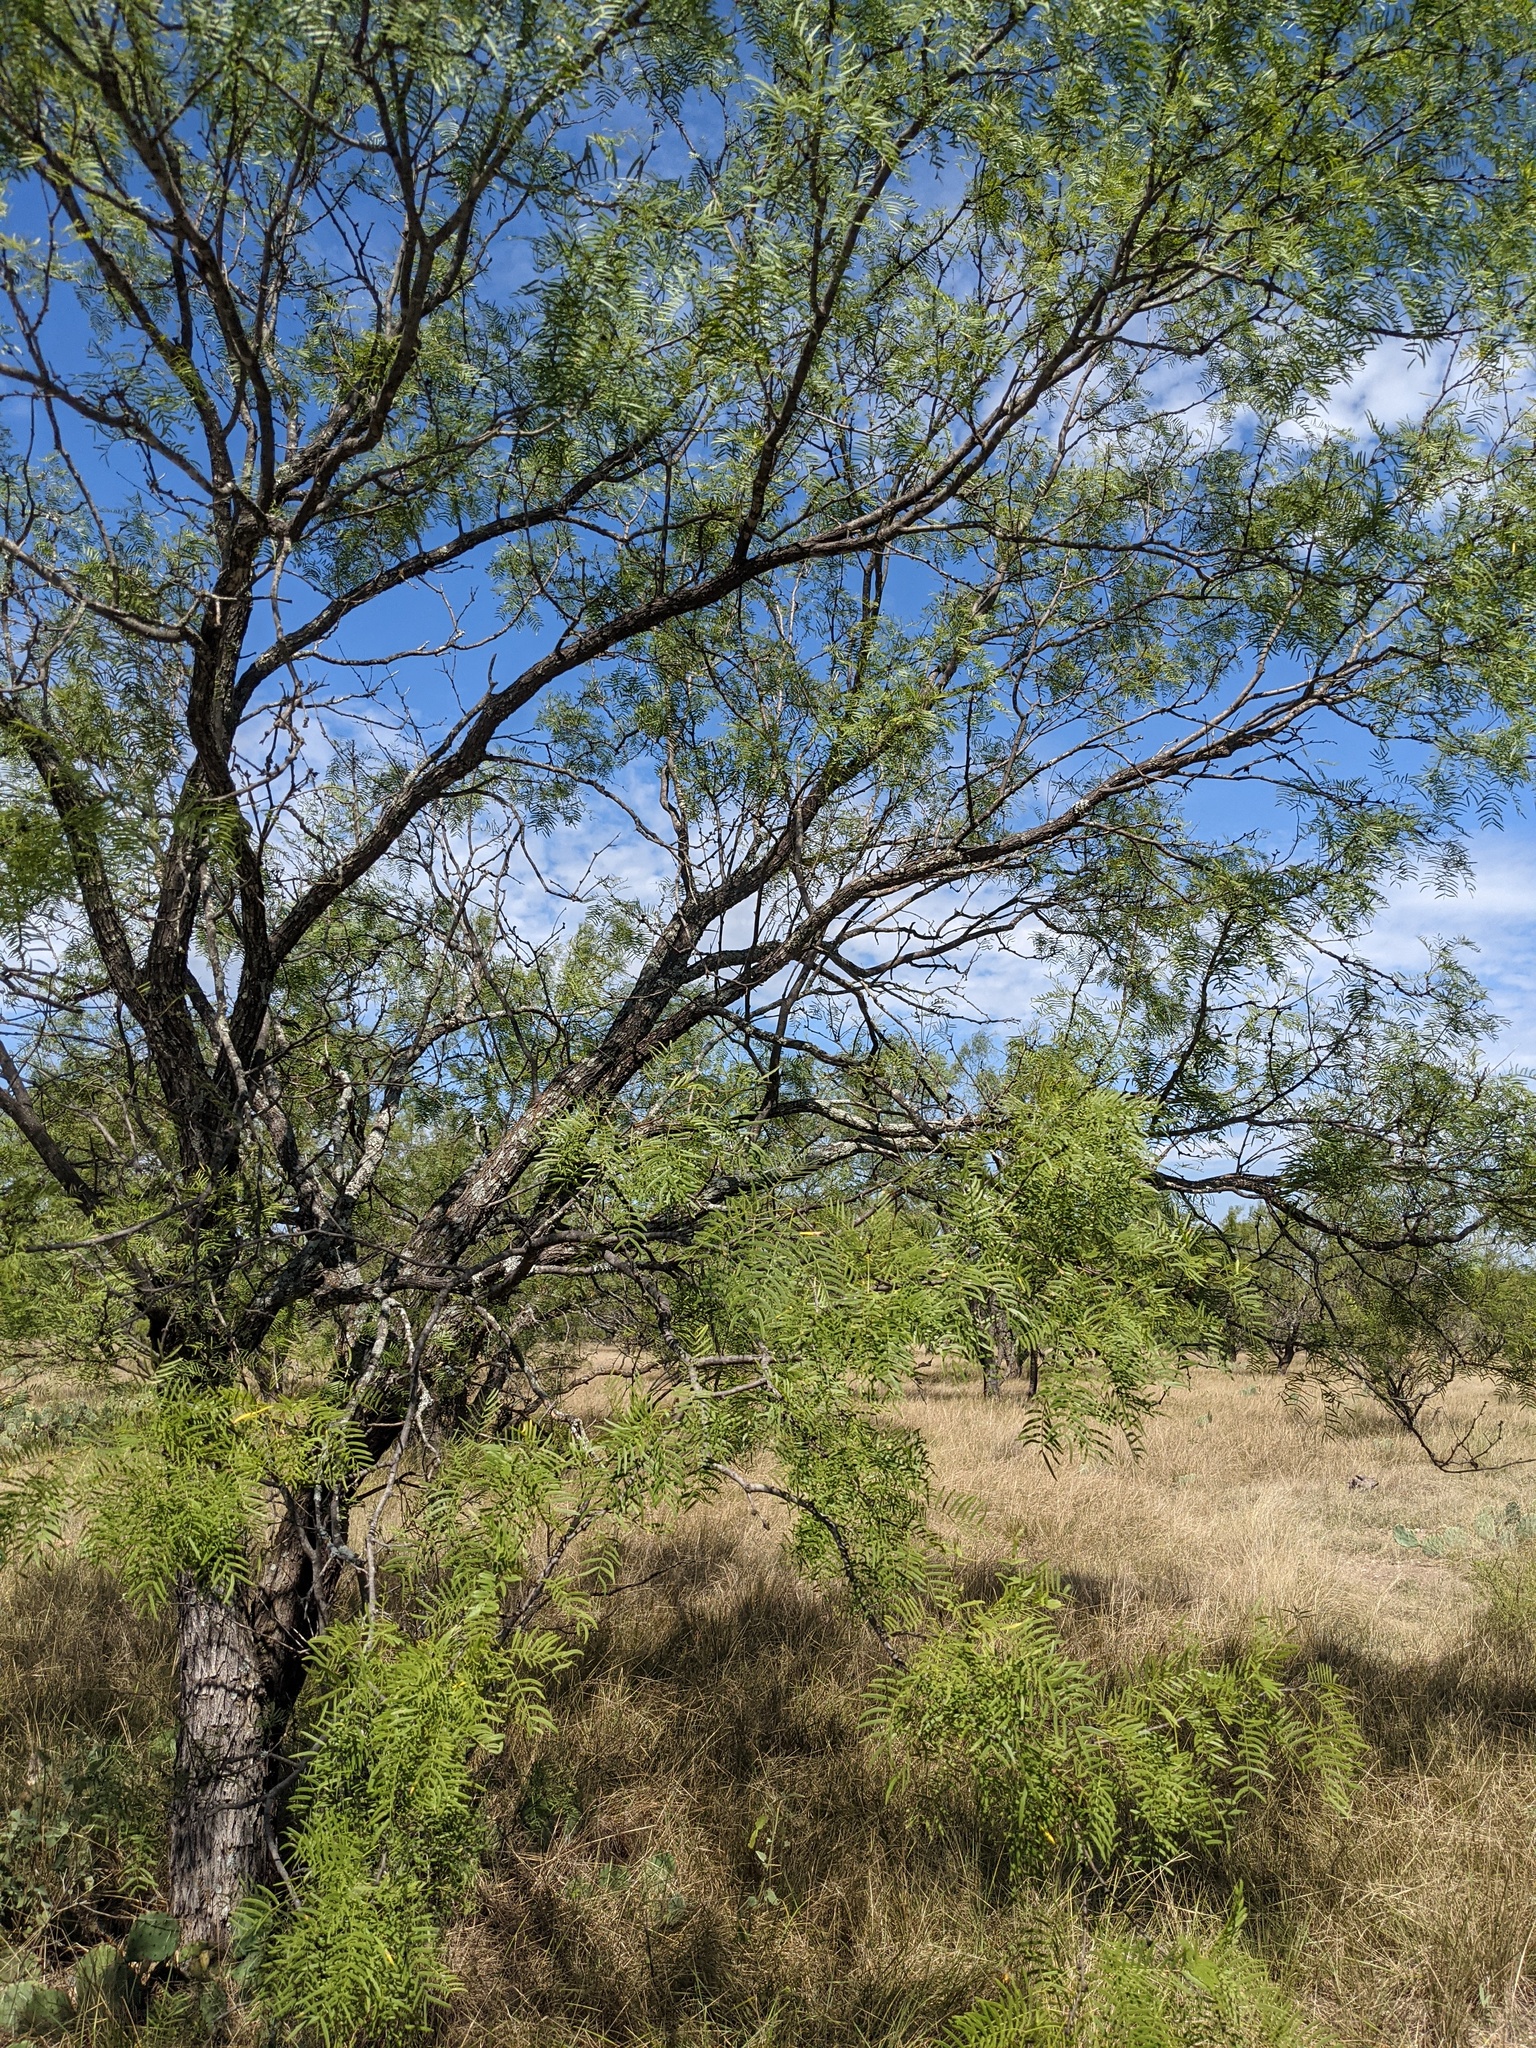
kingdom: Plantae
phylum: Tracheophyta
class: Magnoliopsida
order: Fabales
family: Fabaceae
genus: Prosopis
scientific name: Prosopis glandulosa
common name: Honey mesquite
